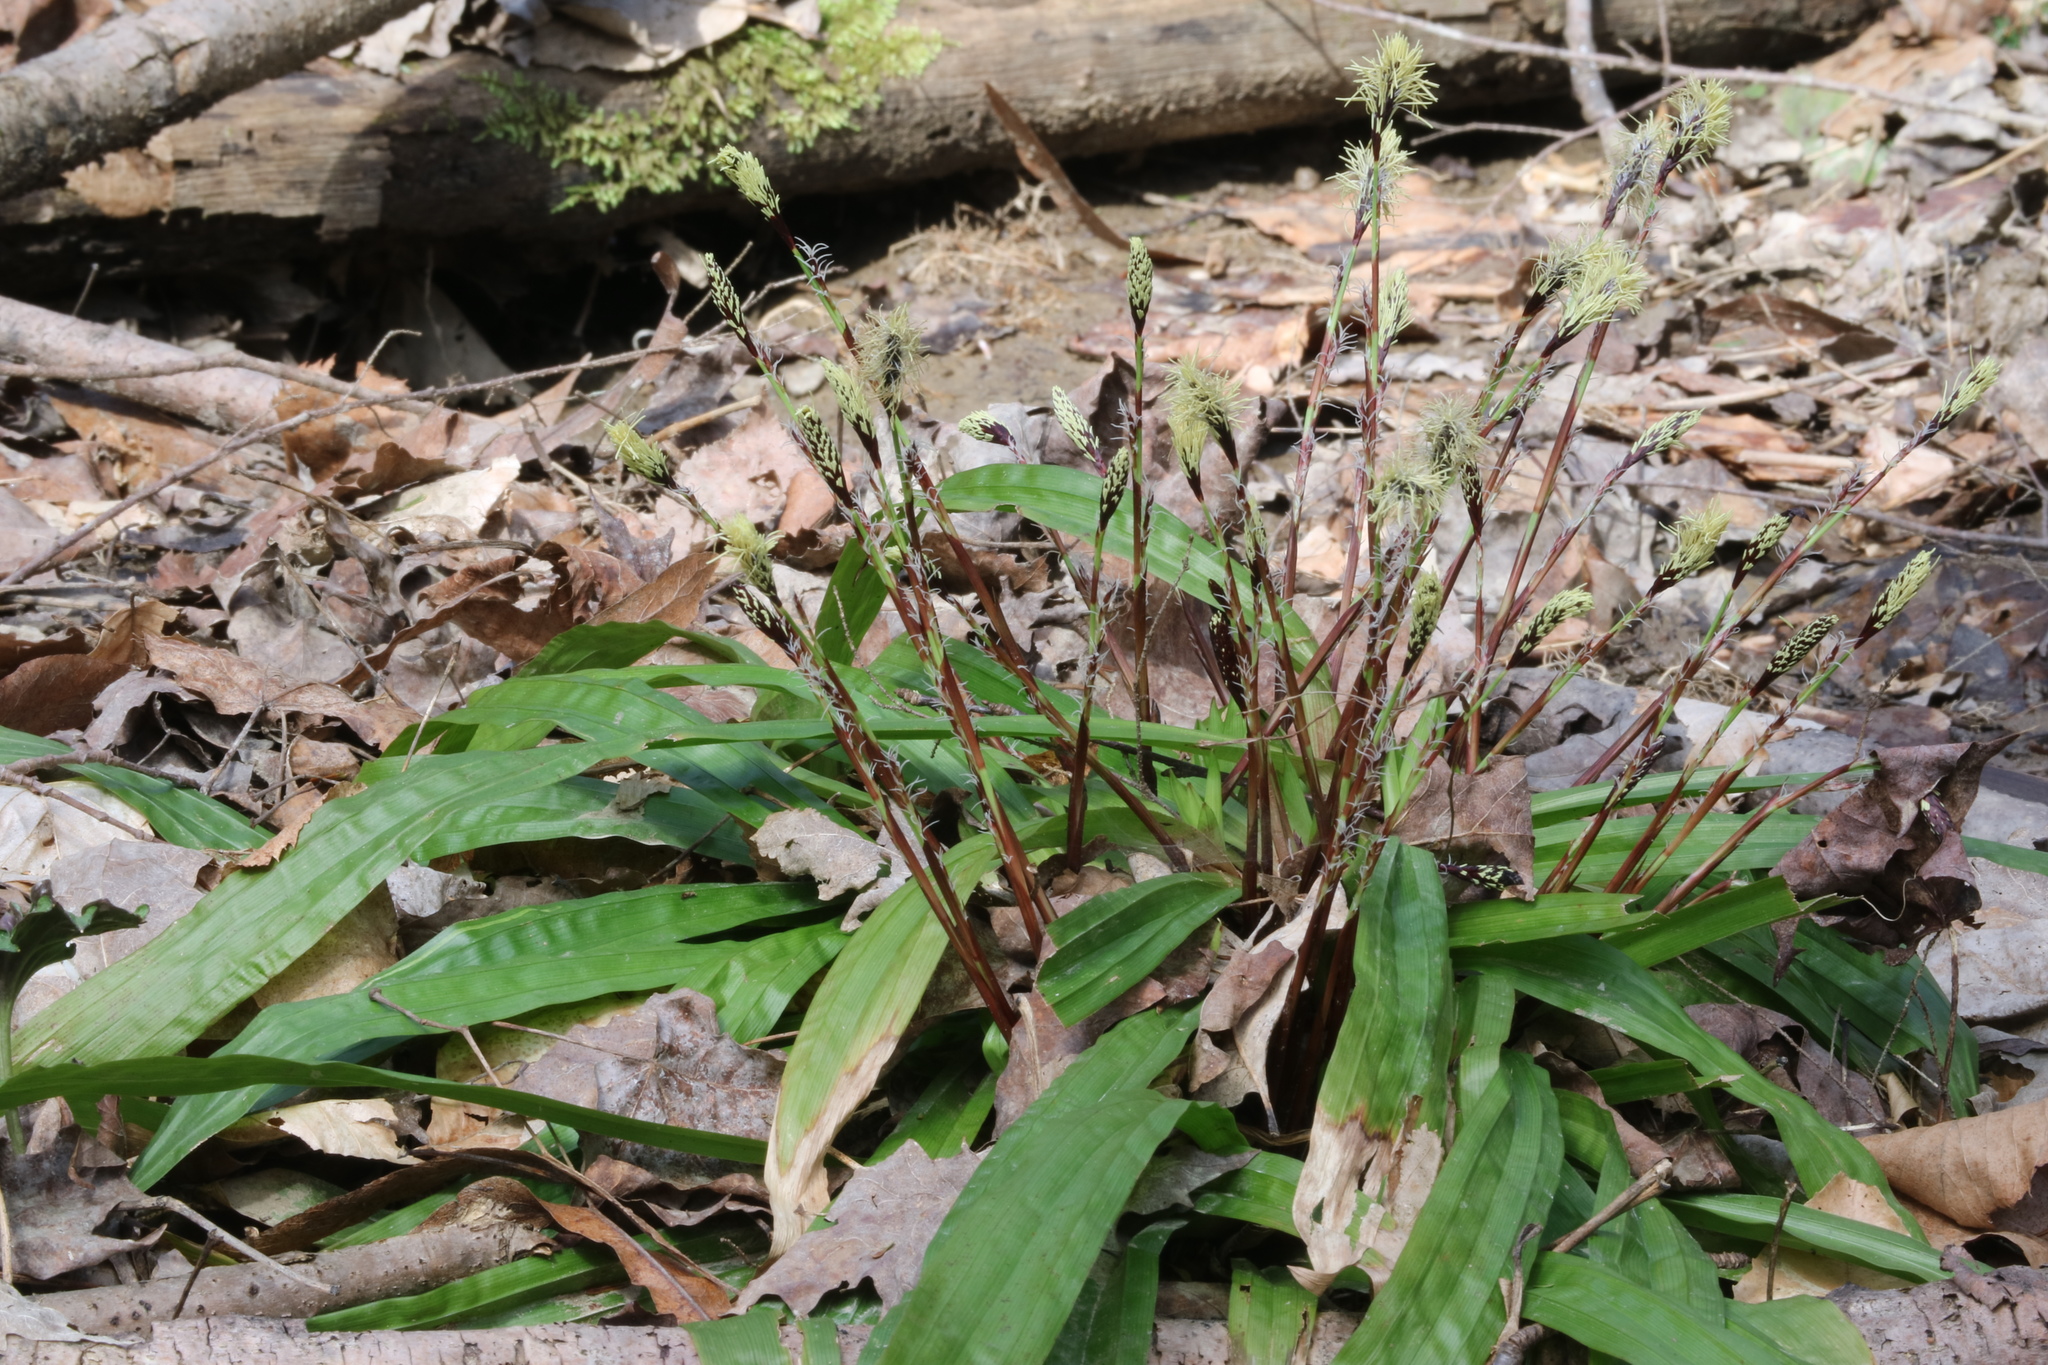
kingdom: Plantae
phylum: Tracheophyta
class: Liliopsida
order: Poales
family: Cyperaceae
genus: Carex
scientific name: Carex plantaginea
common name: Plantain-leaved sedge
